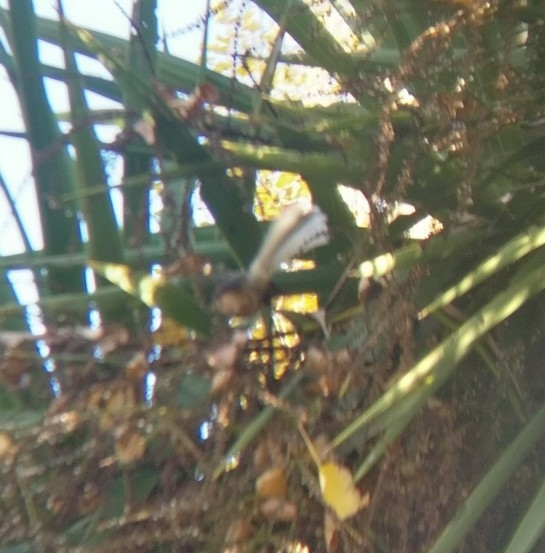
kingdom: Animalia
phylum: Chordata
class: Aves
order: Passeriformes
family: Rhipiduridae
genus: Rhipidura
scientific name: Rhipidura fuliginosa
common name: New zealand fantail
